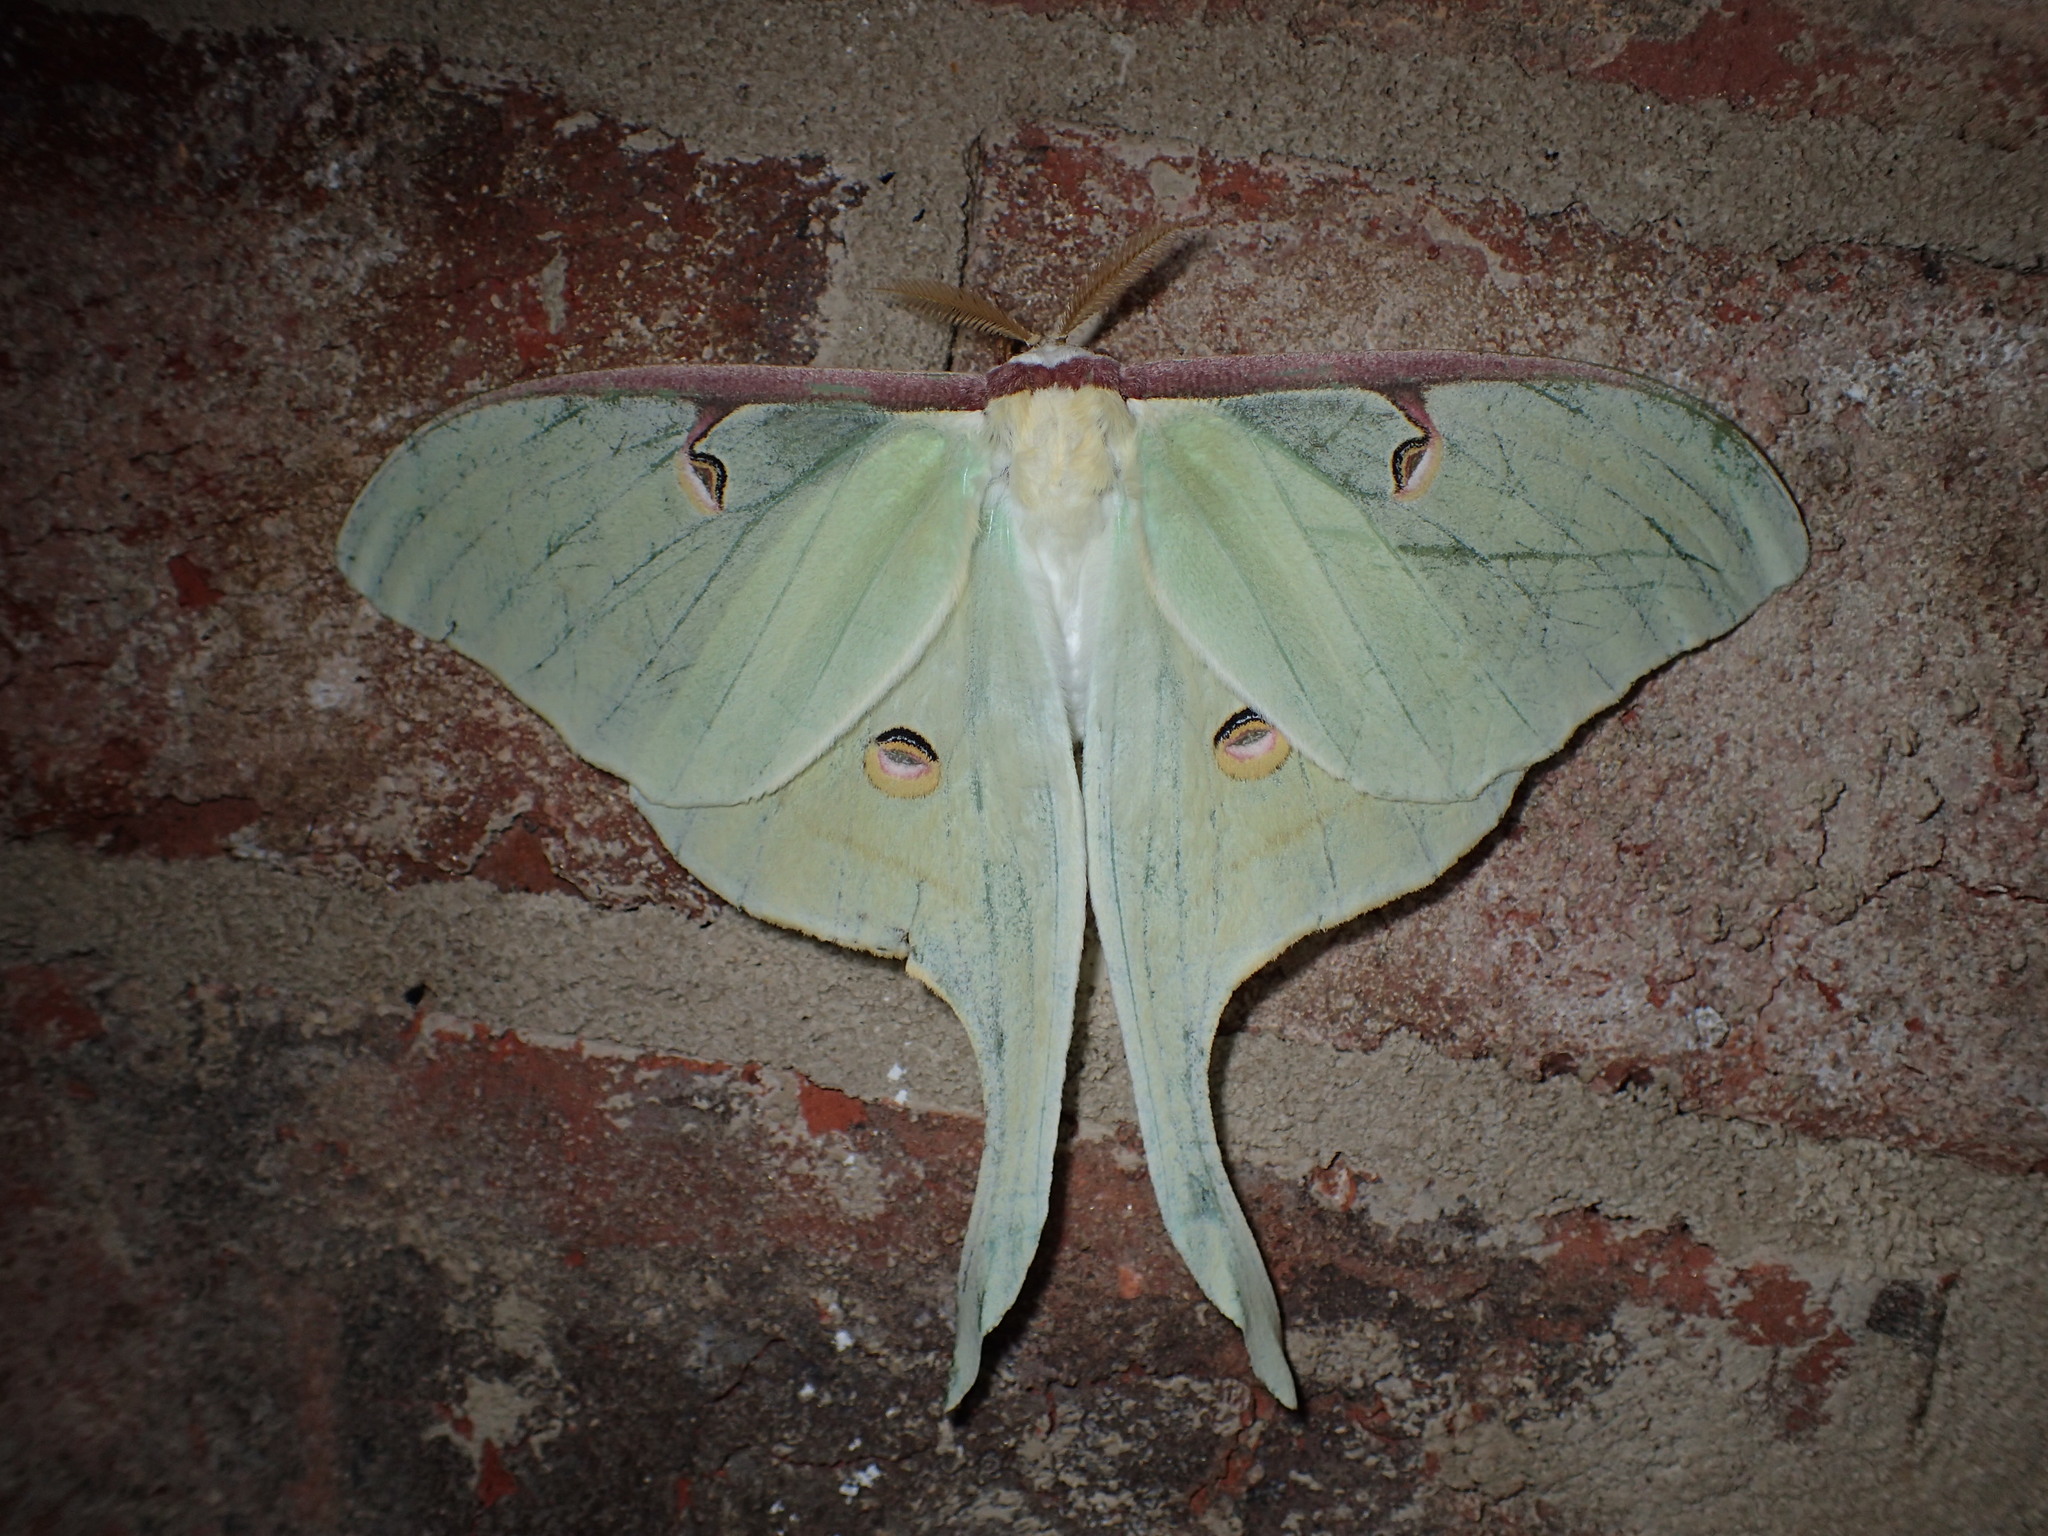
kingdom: Animalia
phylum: Arthropoda
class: Insecta
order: Lepidoptera
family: Saturniidae
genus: Actias
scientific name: Actias luna
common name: Luna moth
